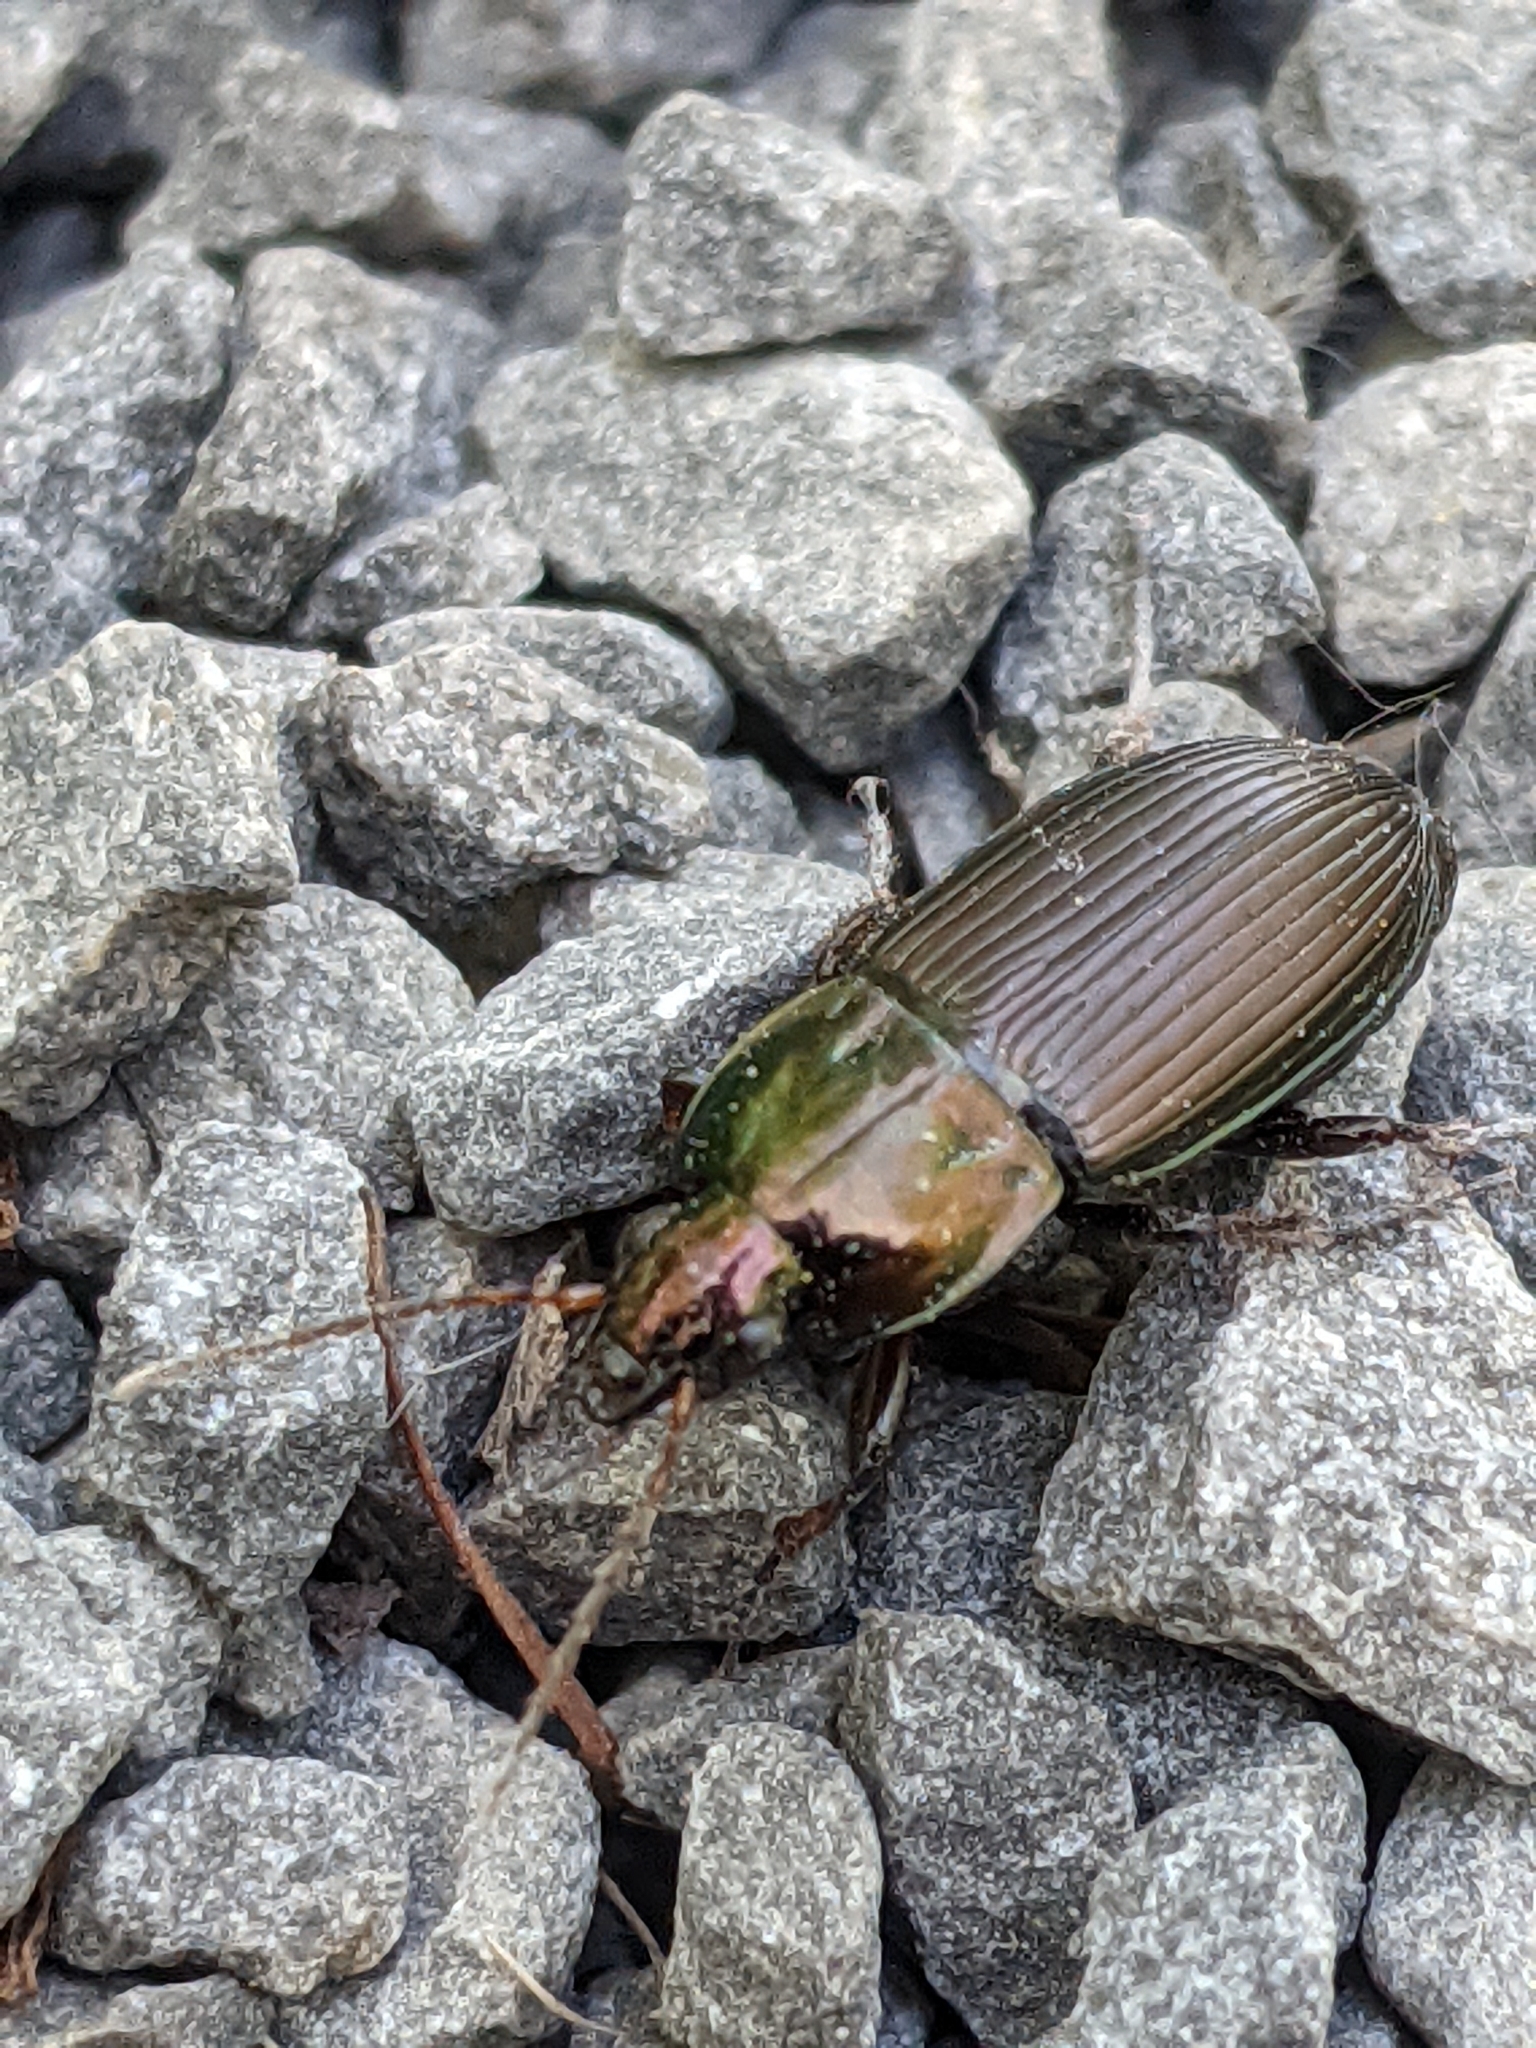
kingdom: Animalia
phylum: Arthropoda
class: Insecta
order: Coleoptera
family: Carabidae
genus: Poecilus
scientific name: Poecilus lucublandus
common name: Woodland ground beetle
